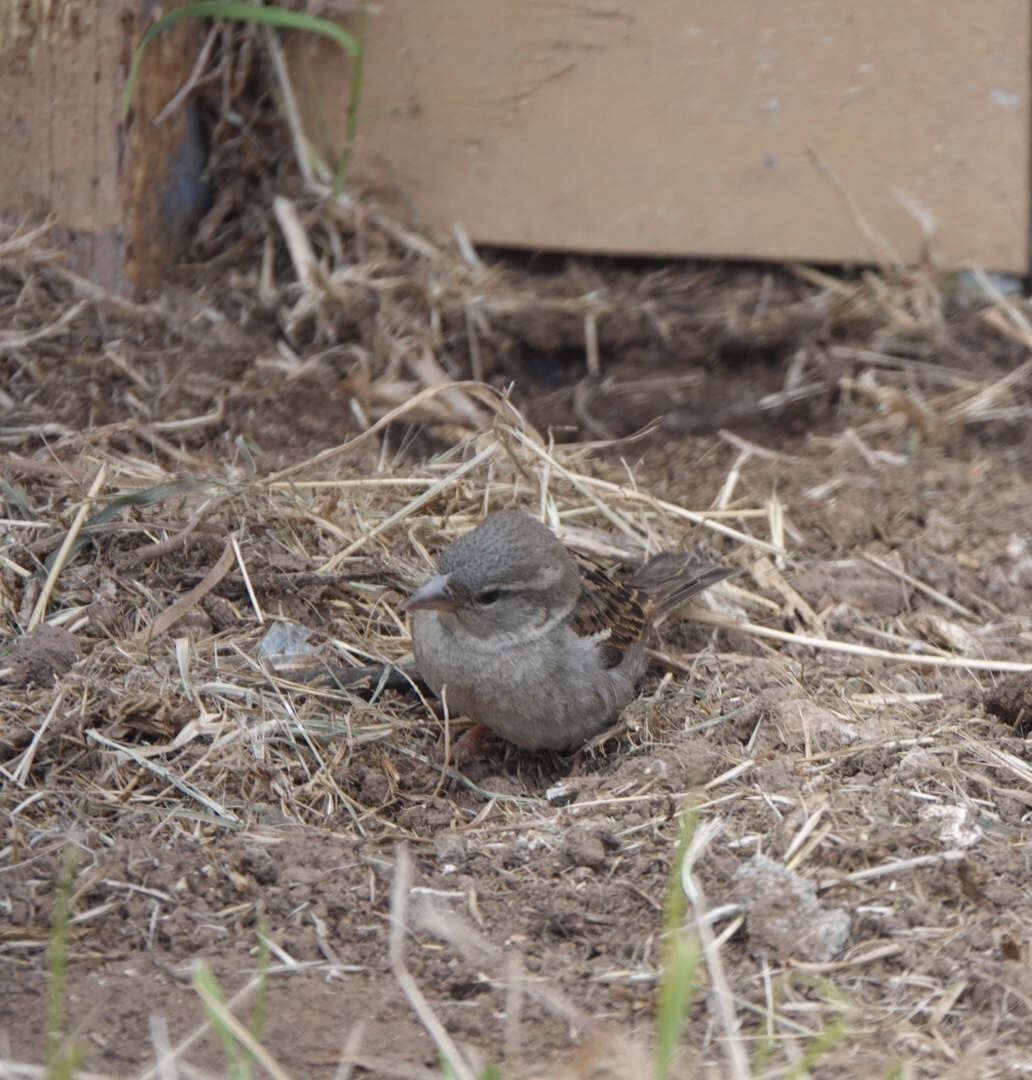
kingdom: Animalia
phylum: Chordata
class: Aves
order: Passeriformes
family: Passeridae
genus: Passer
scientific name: Passer domesticus
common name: House sparrow
